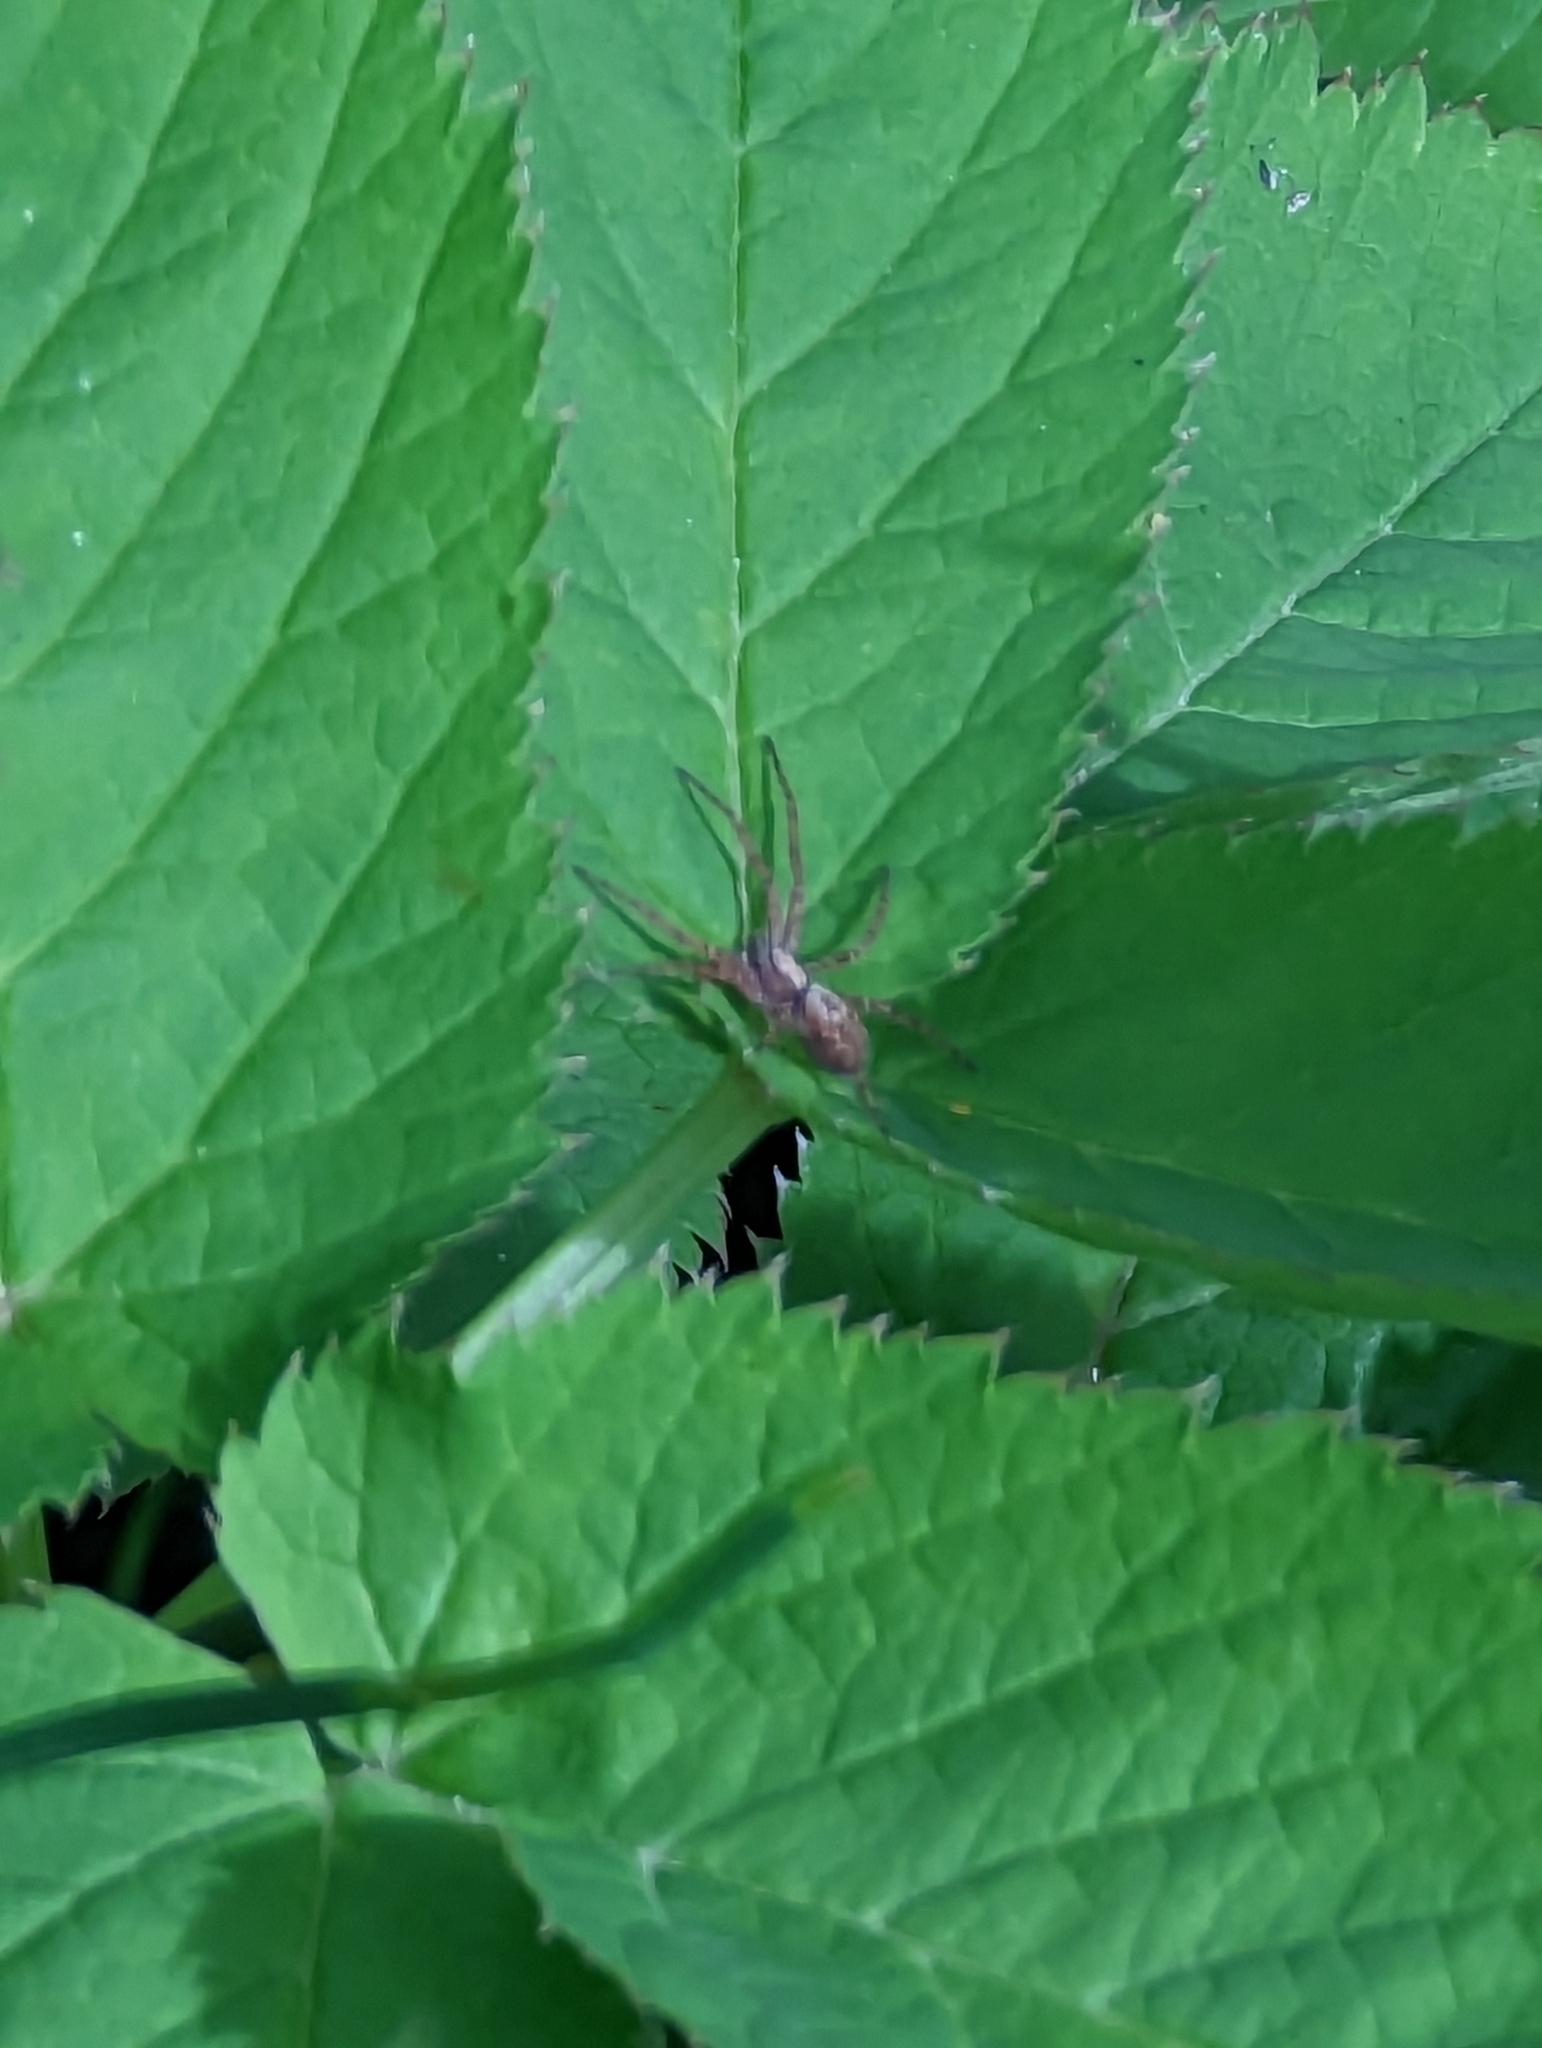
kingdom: Animalia
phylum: Arthropoda
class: Arachnida
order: Araneae
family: Philodromidae
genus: Philodromus
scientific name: Philodromus
